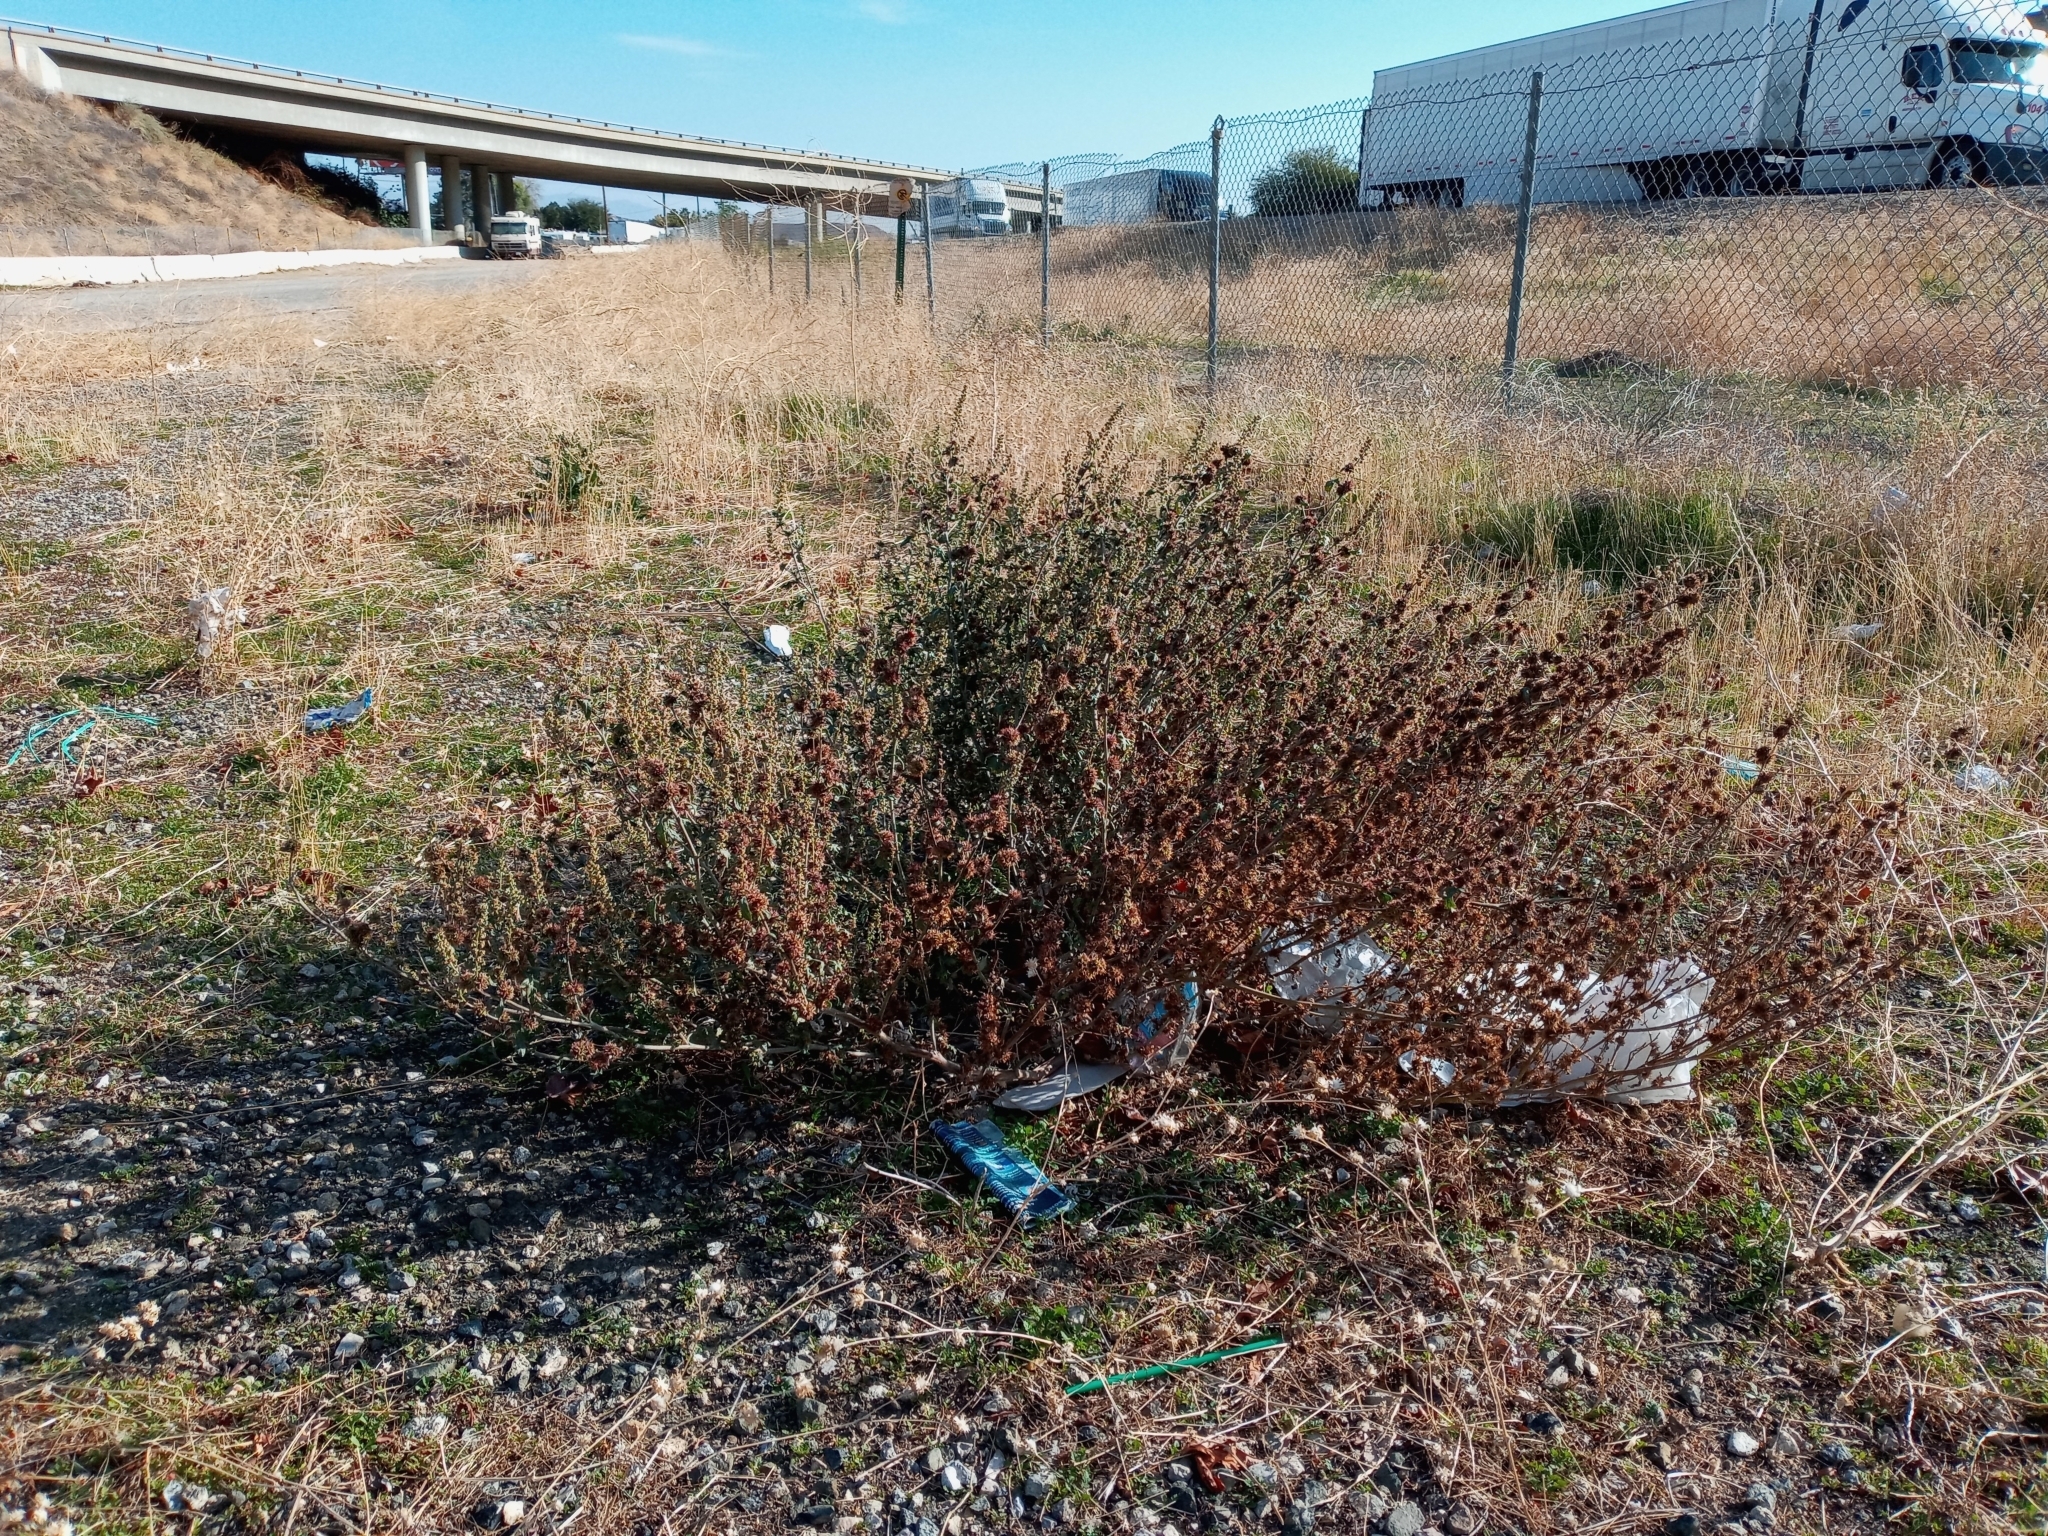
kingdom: Plantae
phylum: Tracheophyta
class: Magnoliopsida
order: Asterales
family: Asteraceae
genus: Ambrosia
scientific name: Ambrosia acanthicarpa
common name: Hooker's bur ragweed
